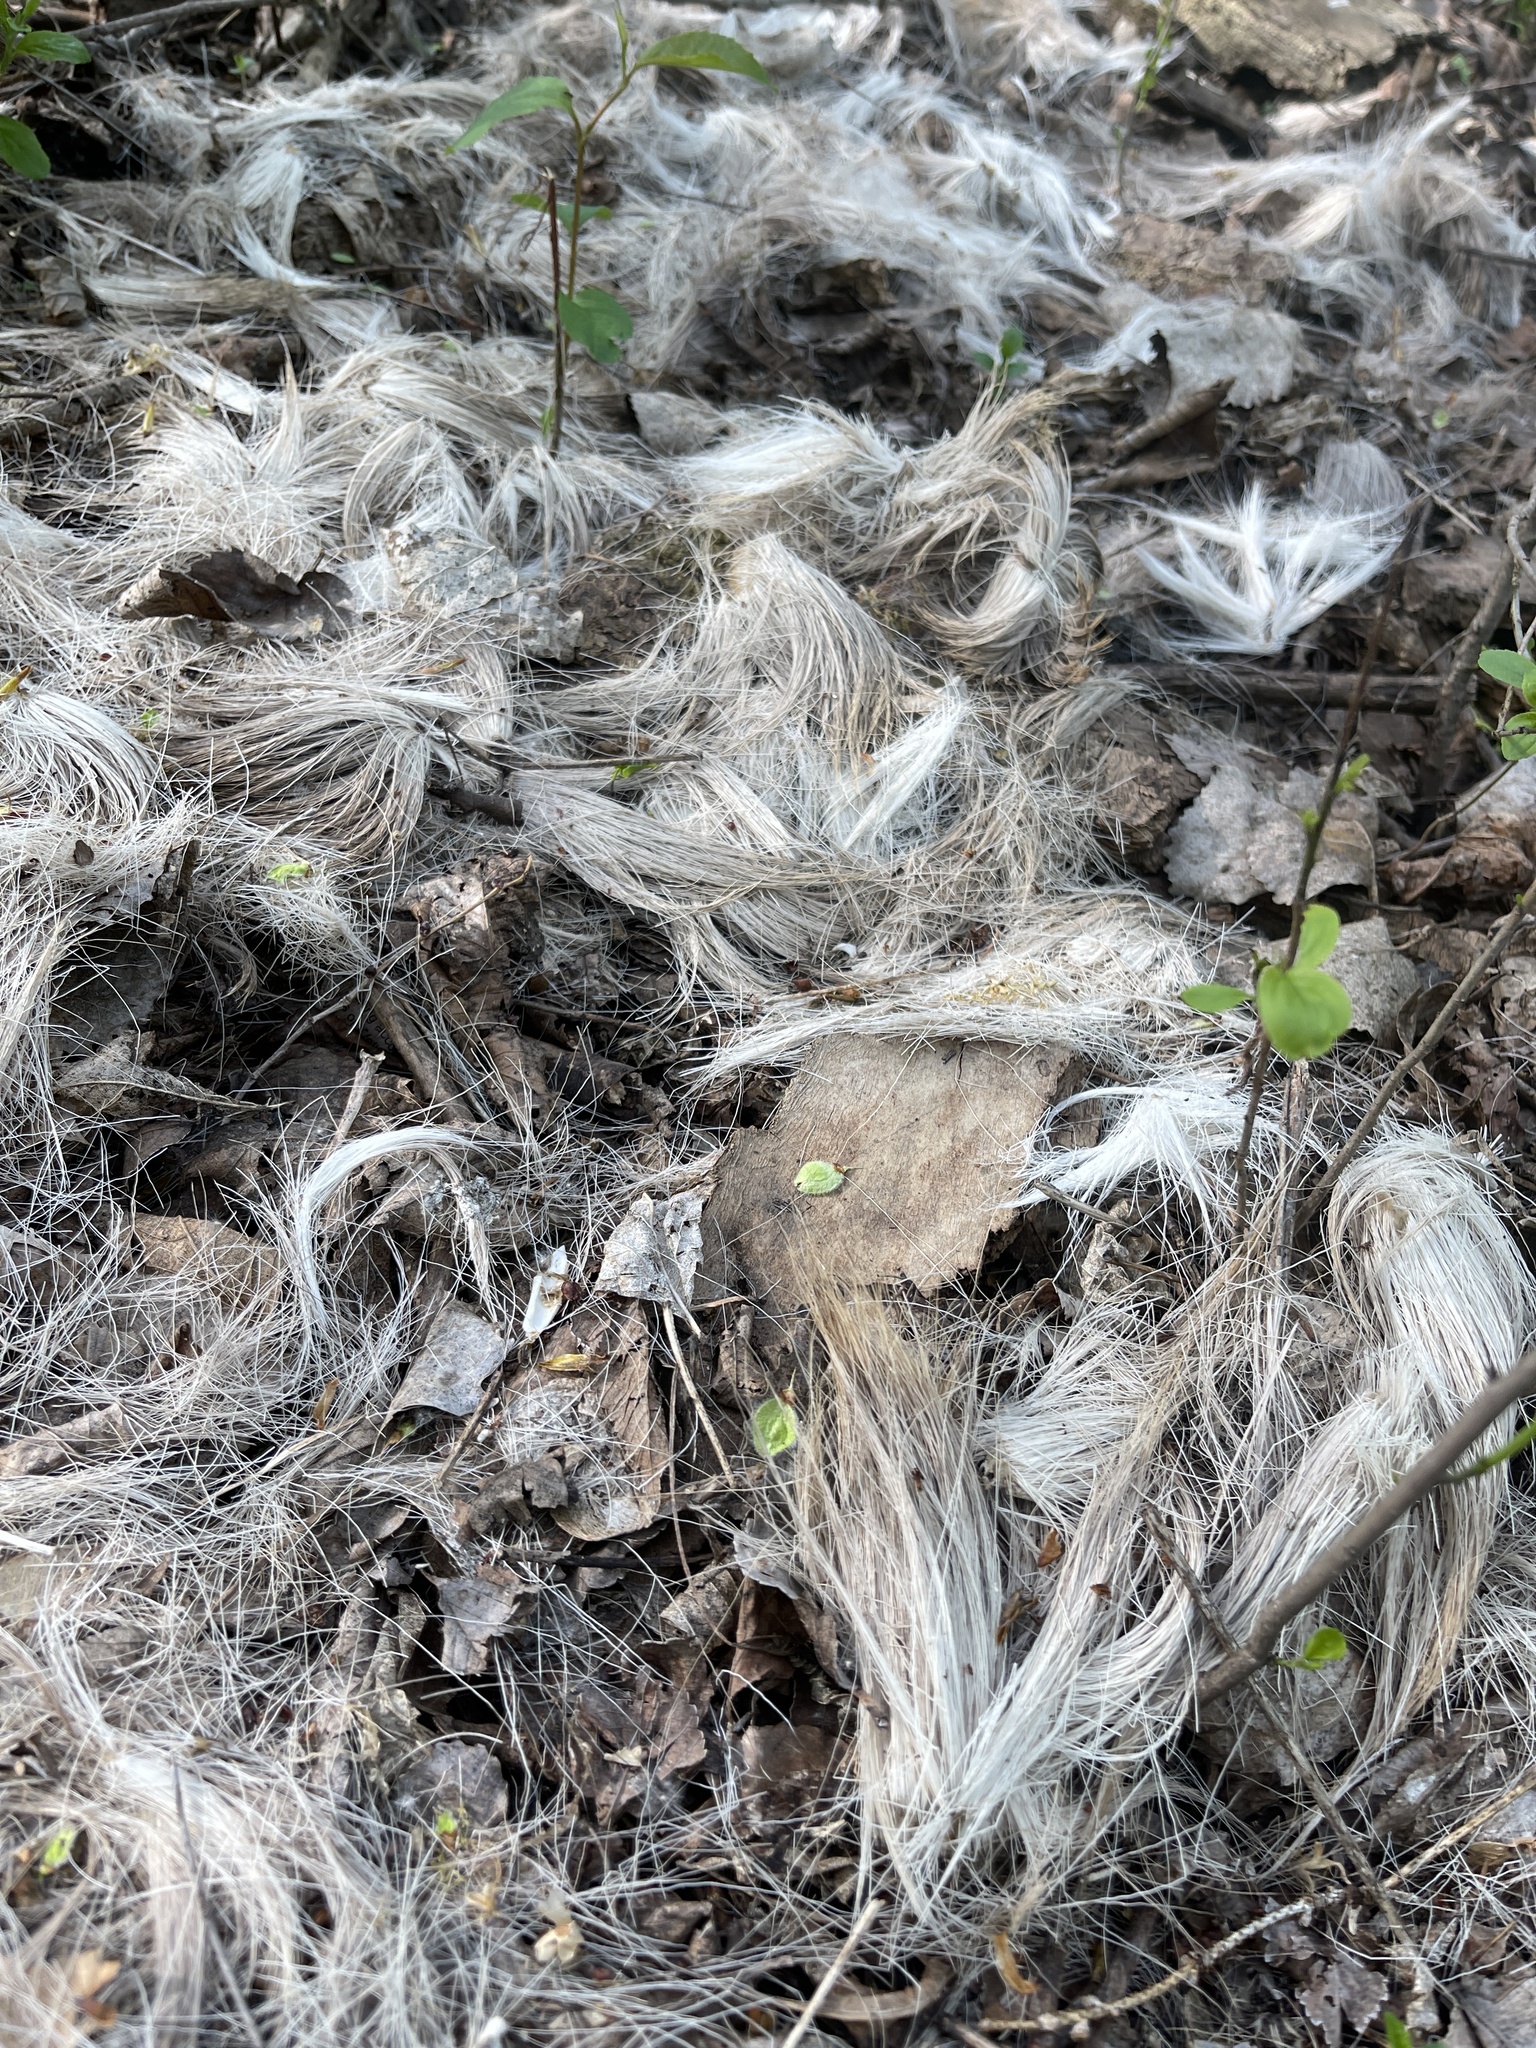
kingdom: Animalia
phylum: Chordata
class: Mammalia
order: Artiodactyla
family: Cervidae
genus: Odocoileus
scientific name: Odocoileus virginianus
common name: White-tailed deer
